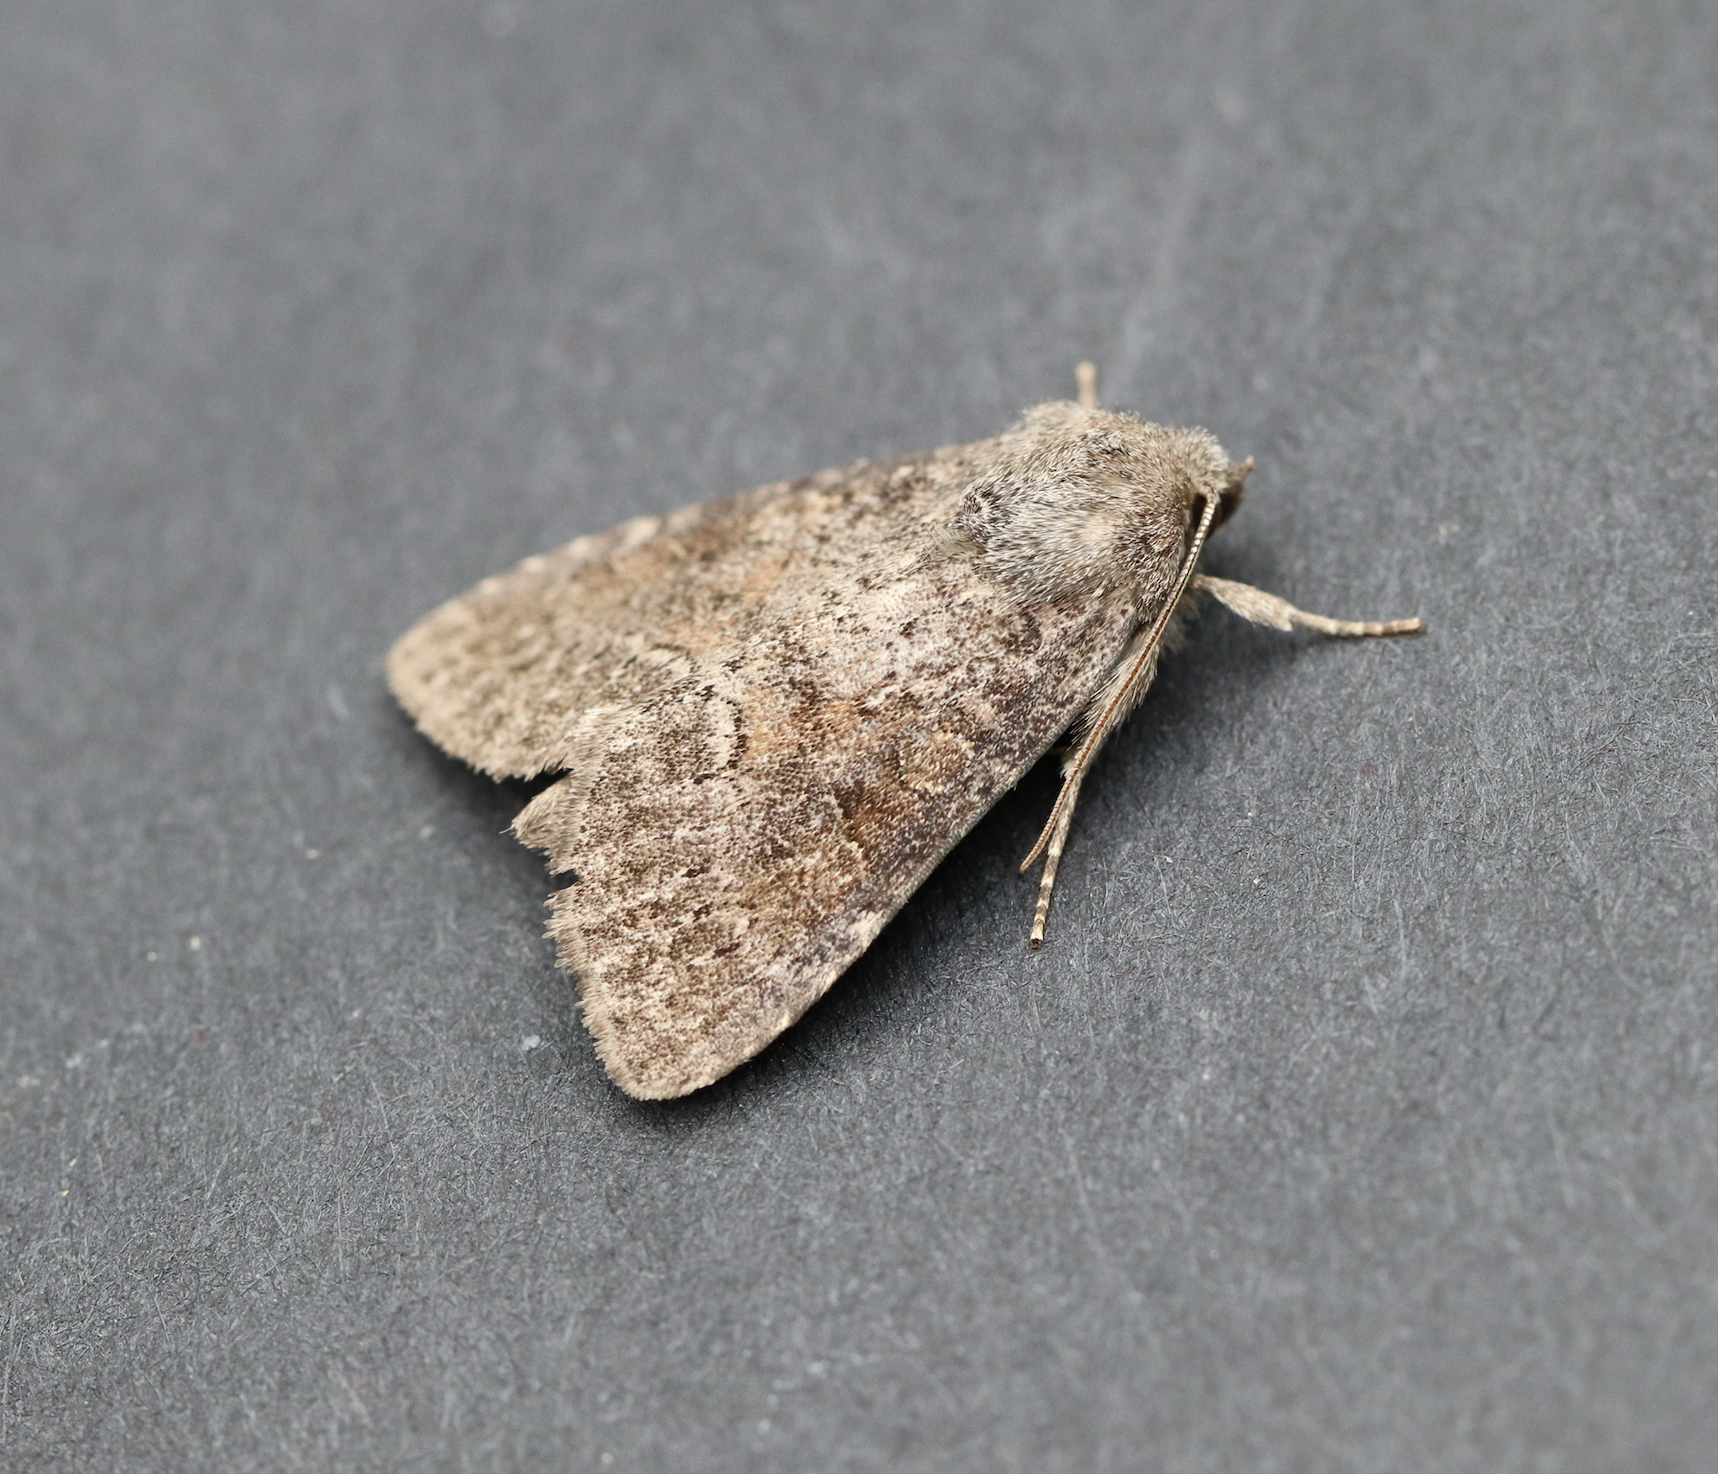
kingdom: Animalia
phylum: Arthropoda
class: Insecta
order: Lepidoptera
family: Noctuidae
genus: Parastichtis
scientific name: Parastichtis suspecta
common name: Suspected
